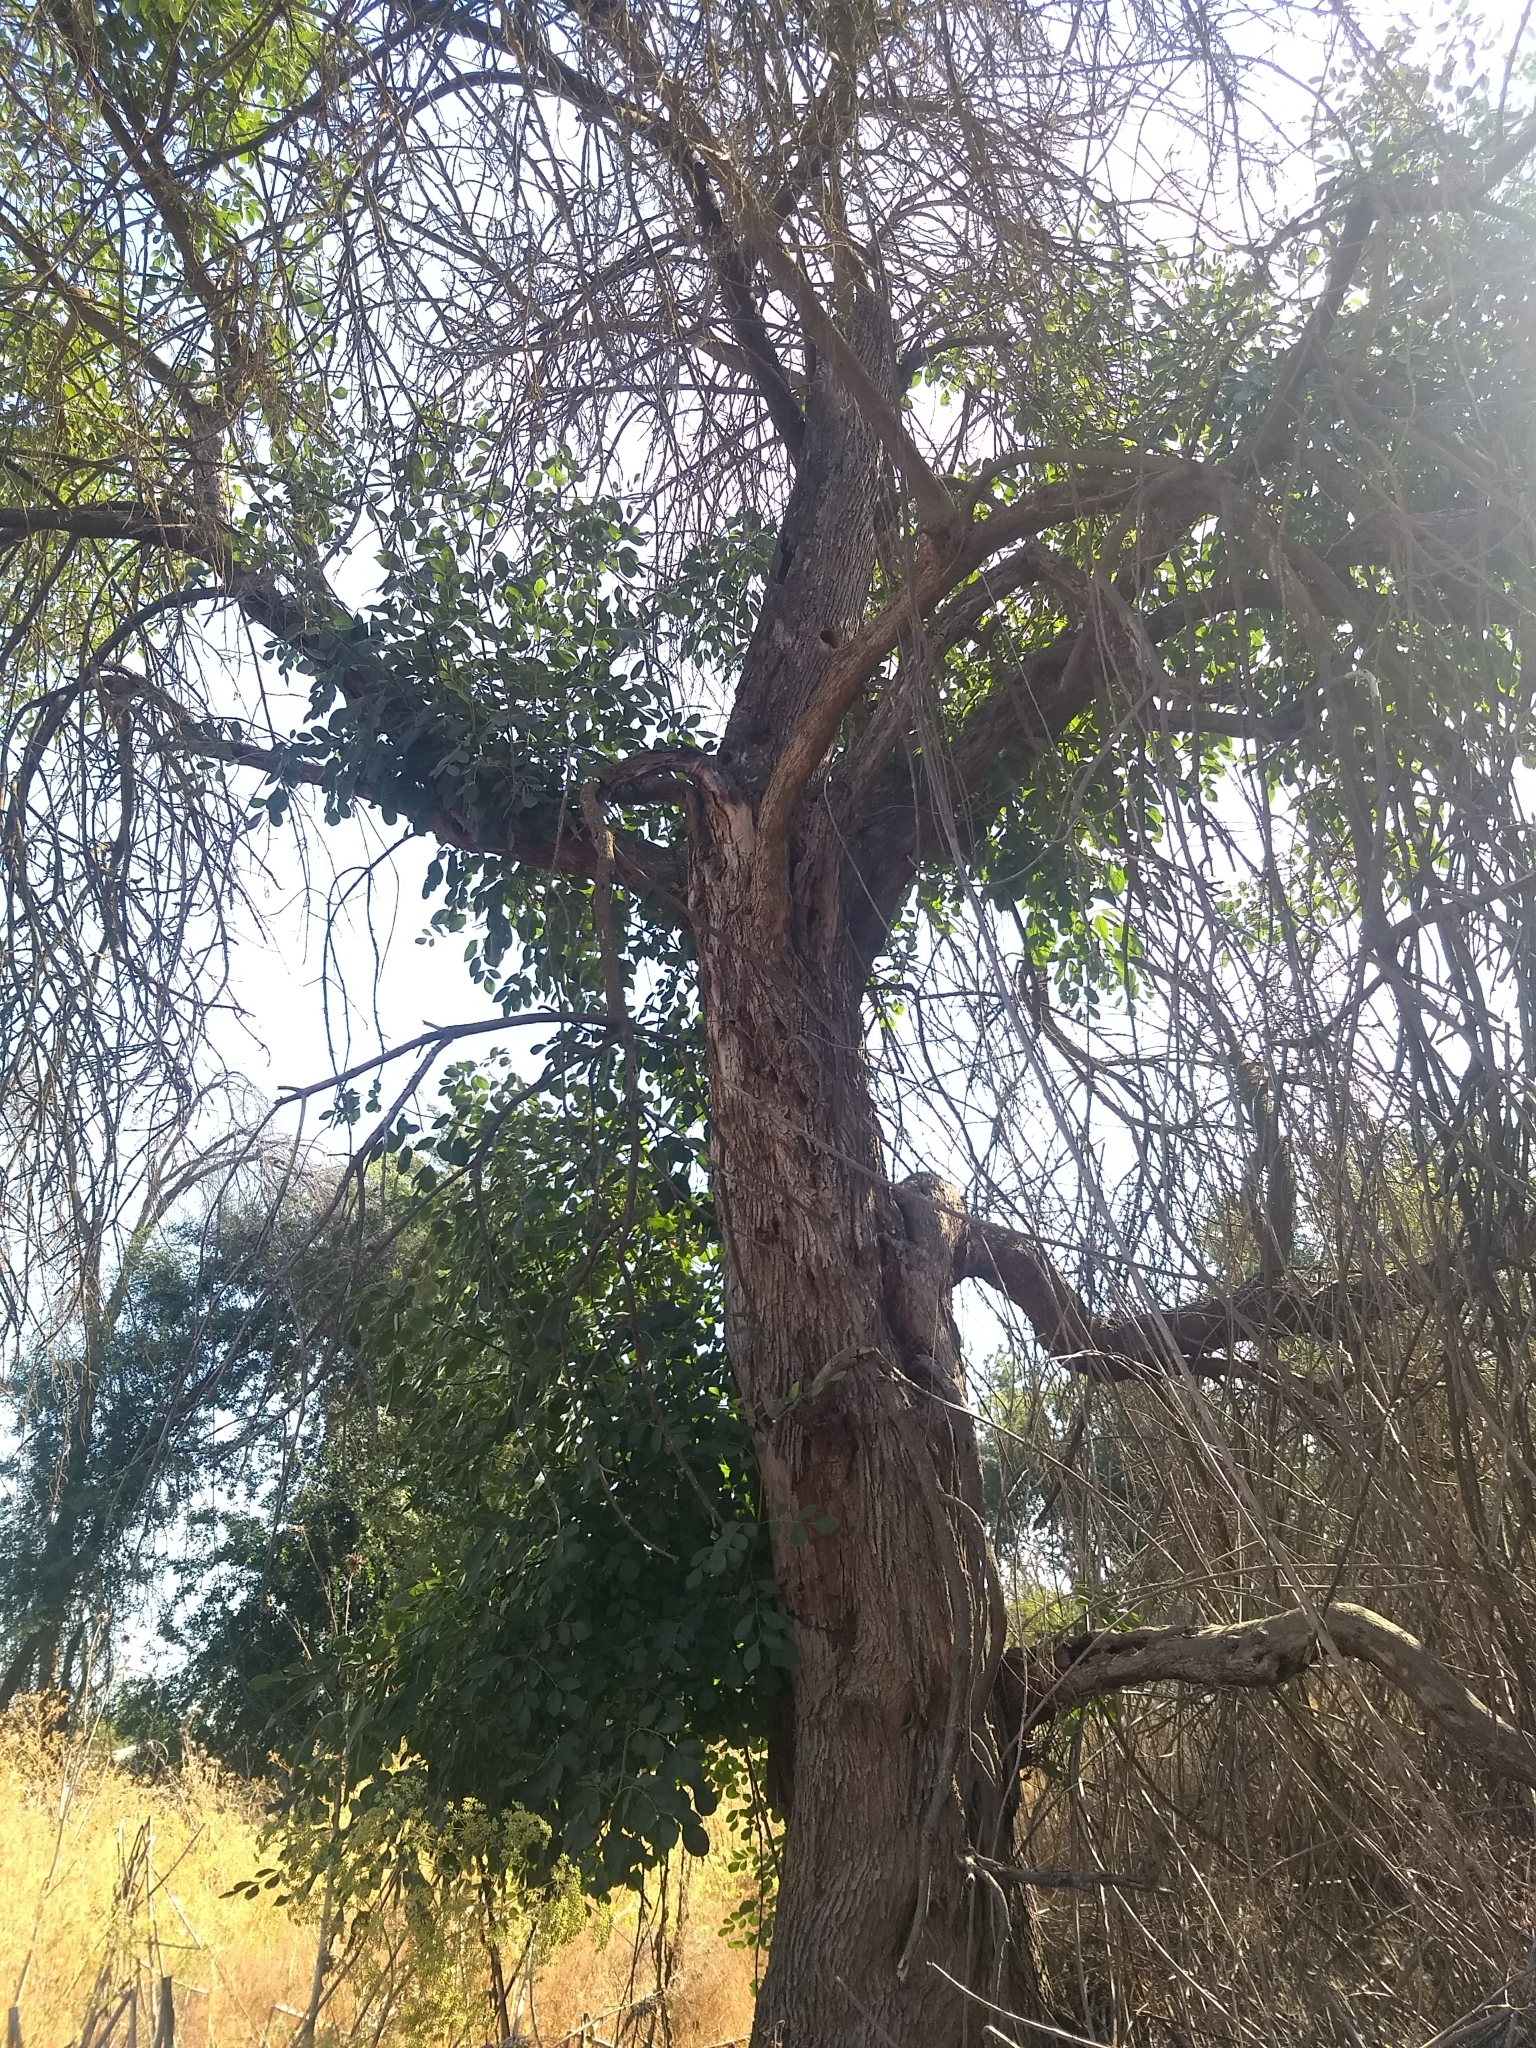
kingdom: Plantae
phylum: Tracheophyta
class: Magnoliopsida
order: Lamiales
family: Oleaceae
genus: Fraxinus
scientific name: Fraxinus latifolia
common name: Oregon ash
